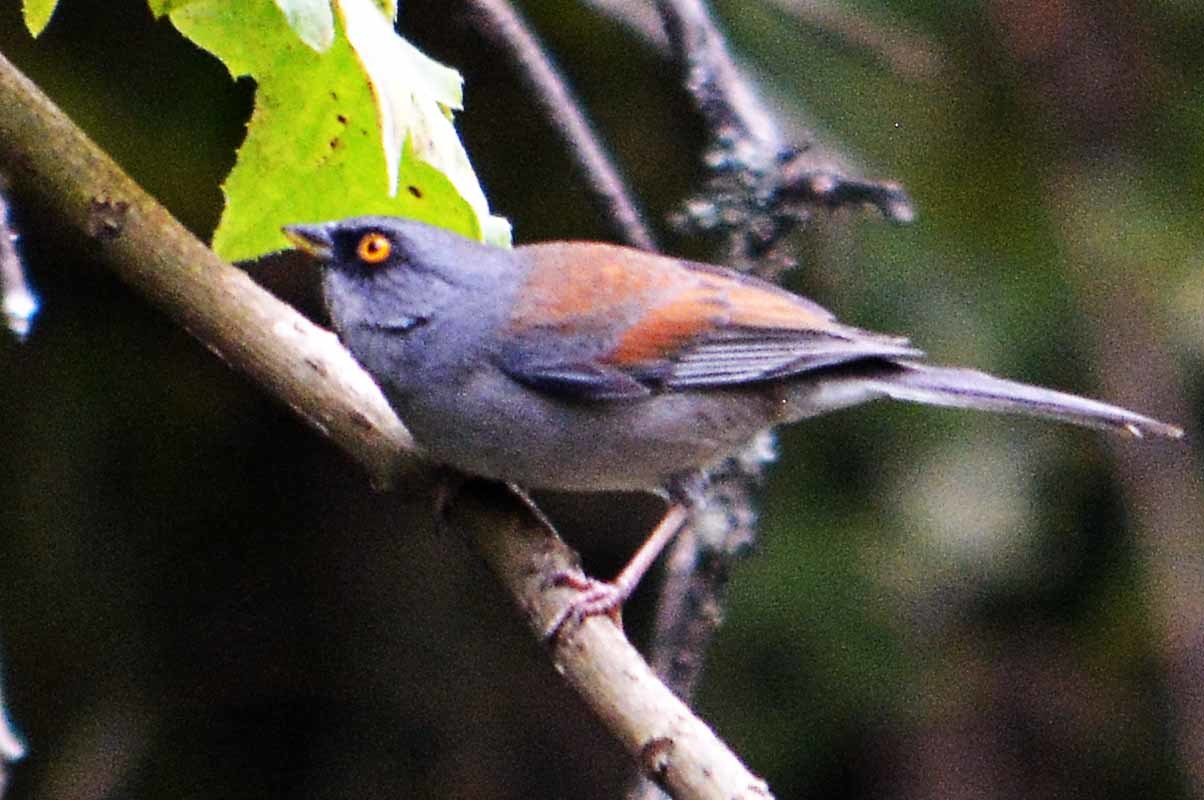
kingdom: Animalia
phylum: Chordata
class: Aves
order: Passeriformes
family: Passerellidae
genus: Junco
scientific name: Junco phaeonotus
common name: Yellow-eyed junco
